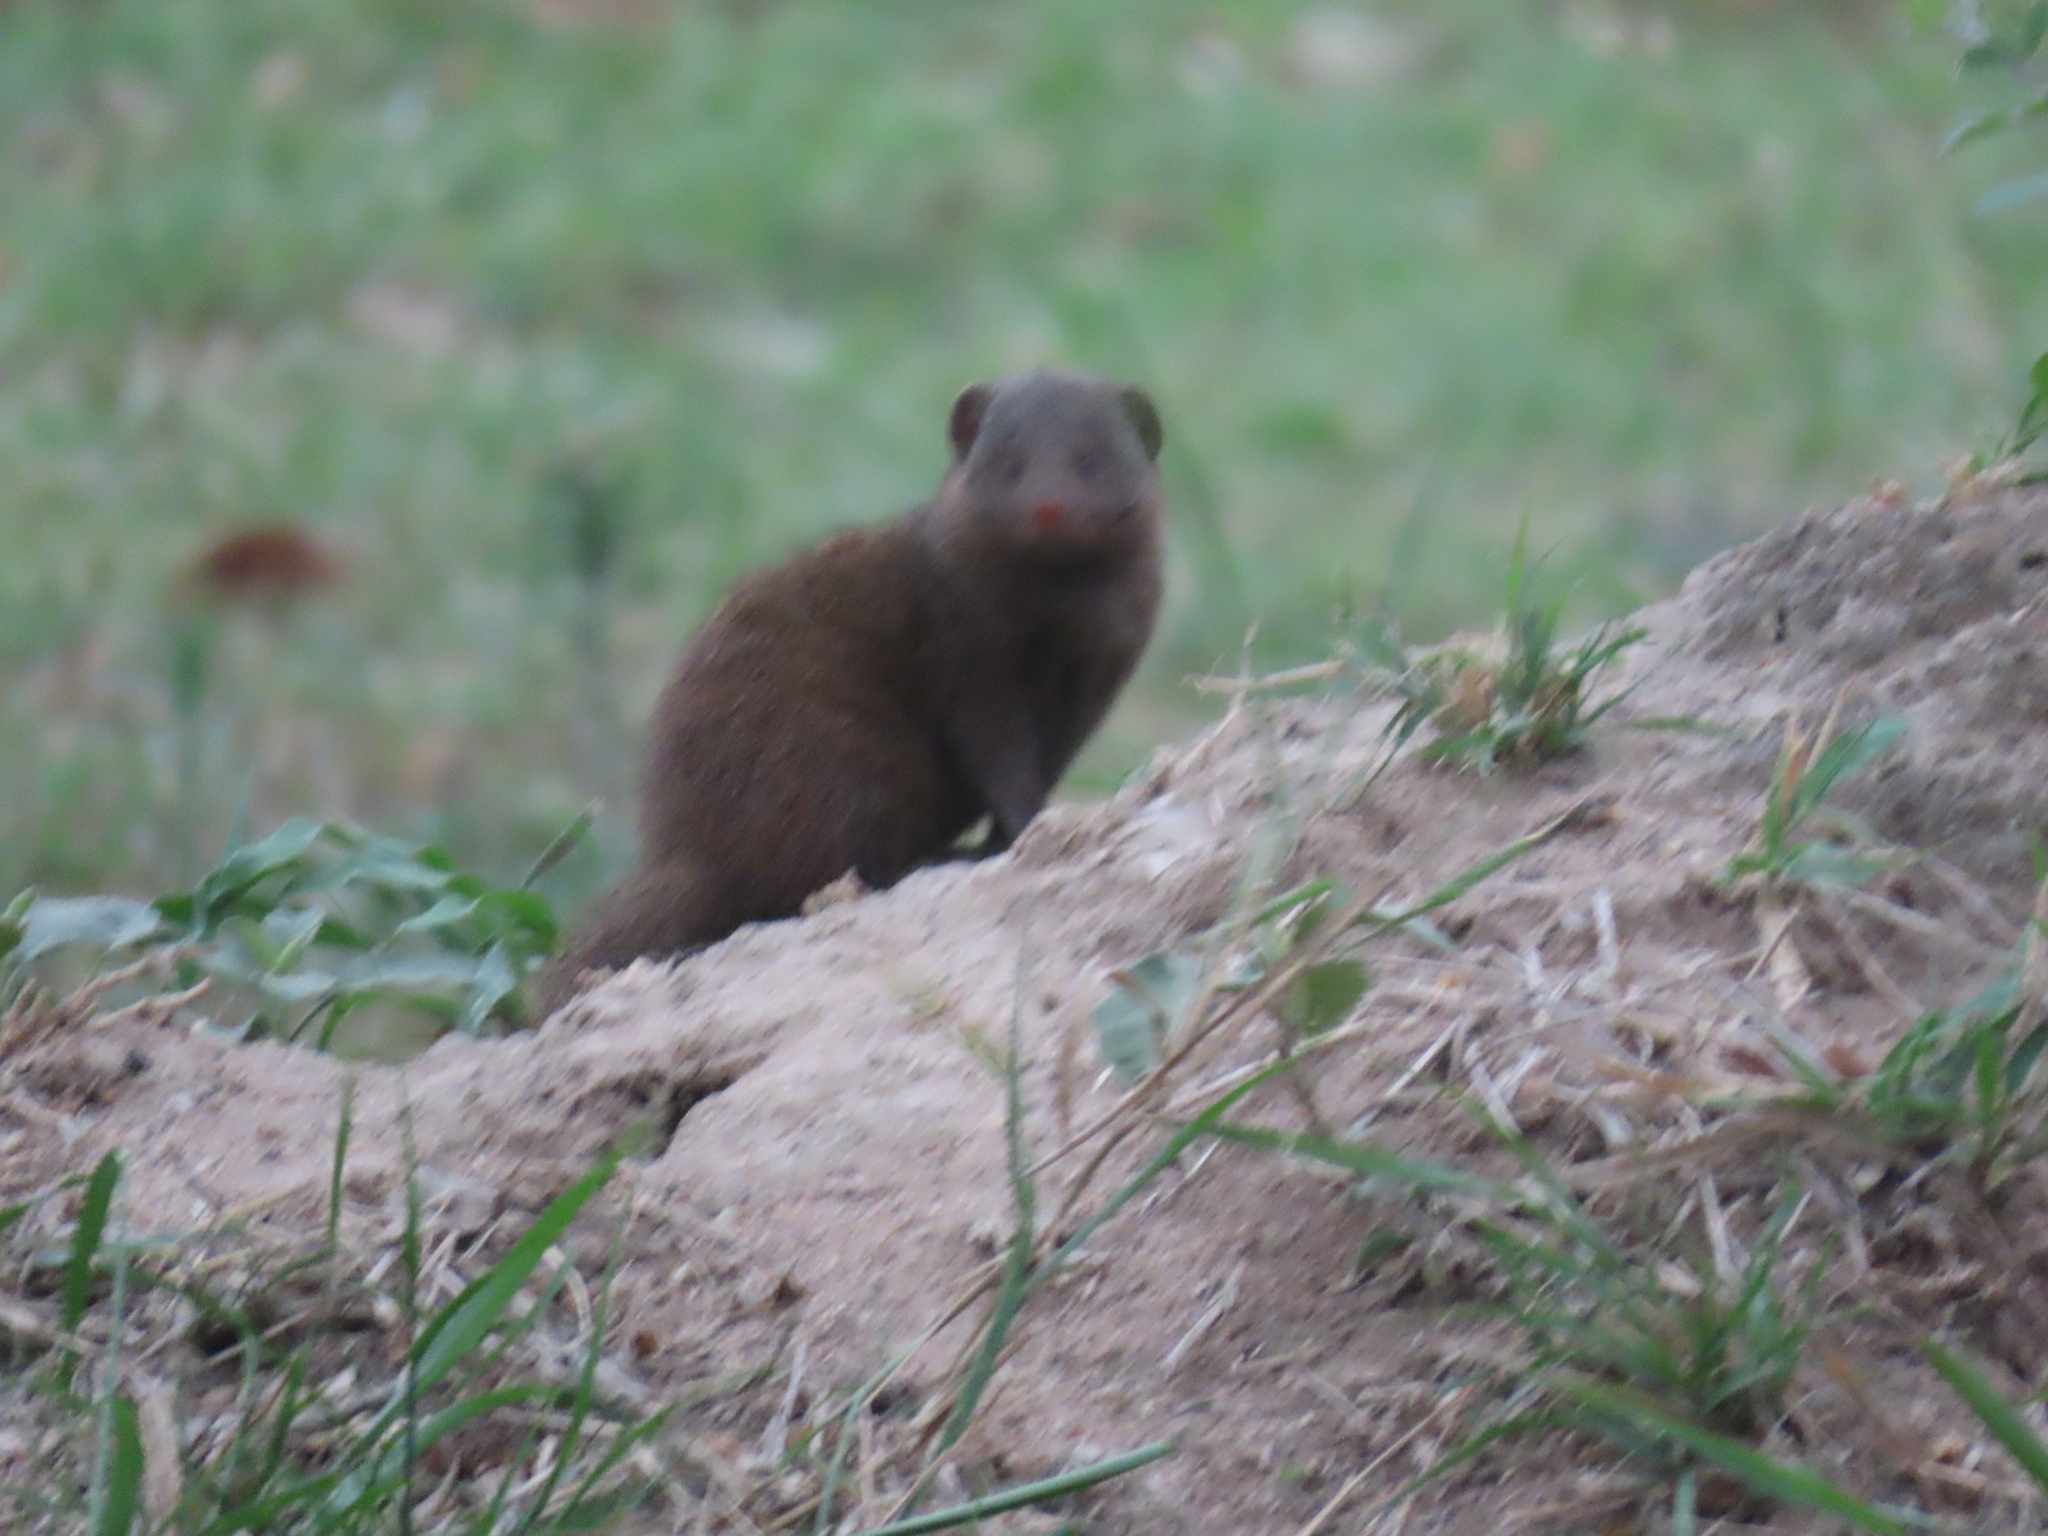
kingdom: Animalia
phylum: Chordata
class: Mammalia
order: Carnivora
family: Herpestidae
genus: Helogale
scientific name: Helogale parvula
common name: Common dwarf mongoose
